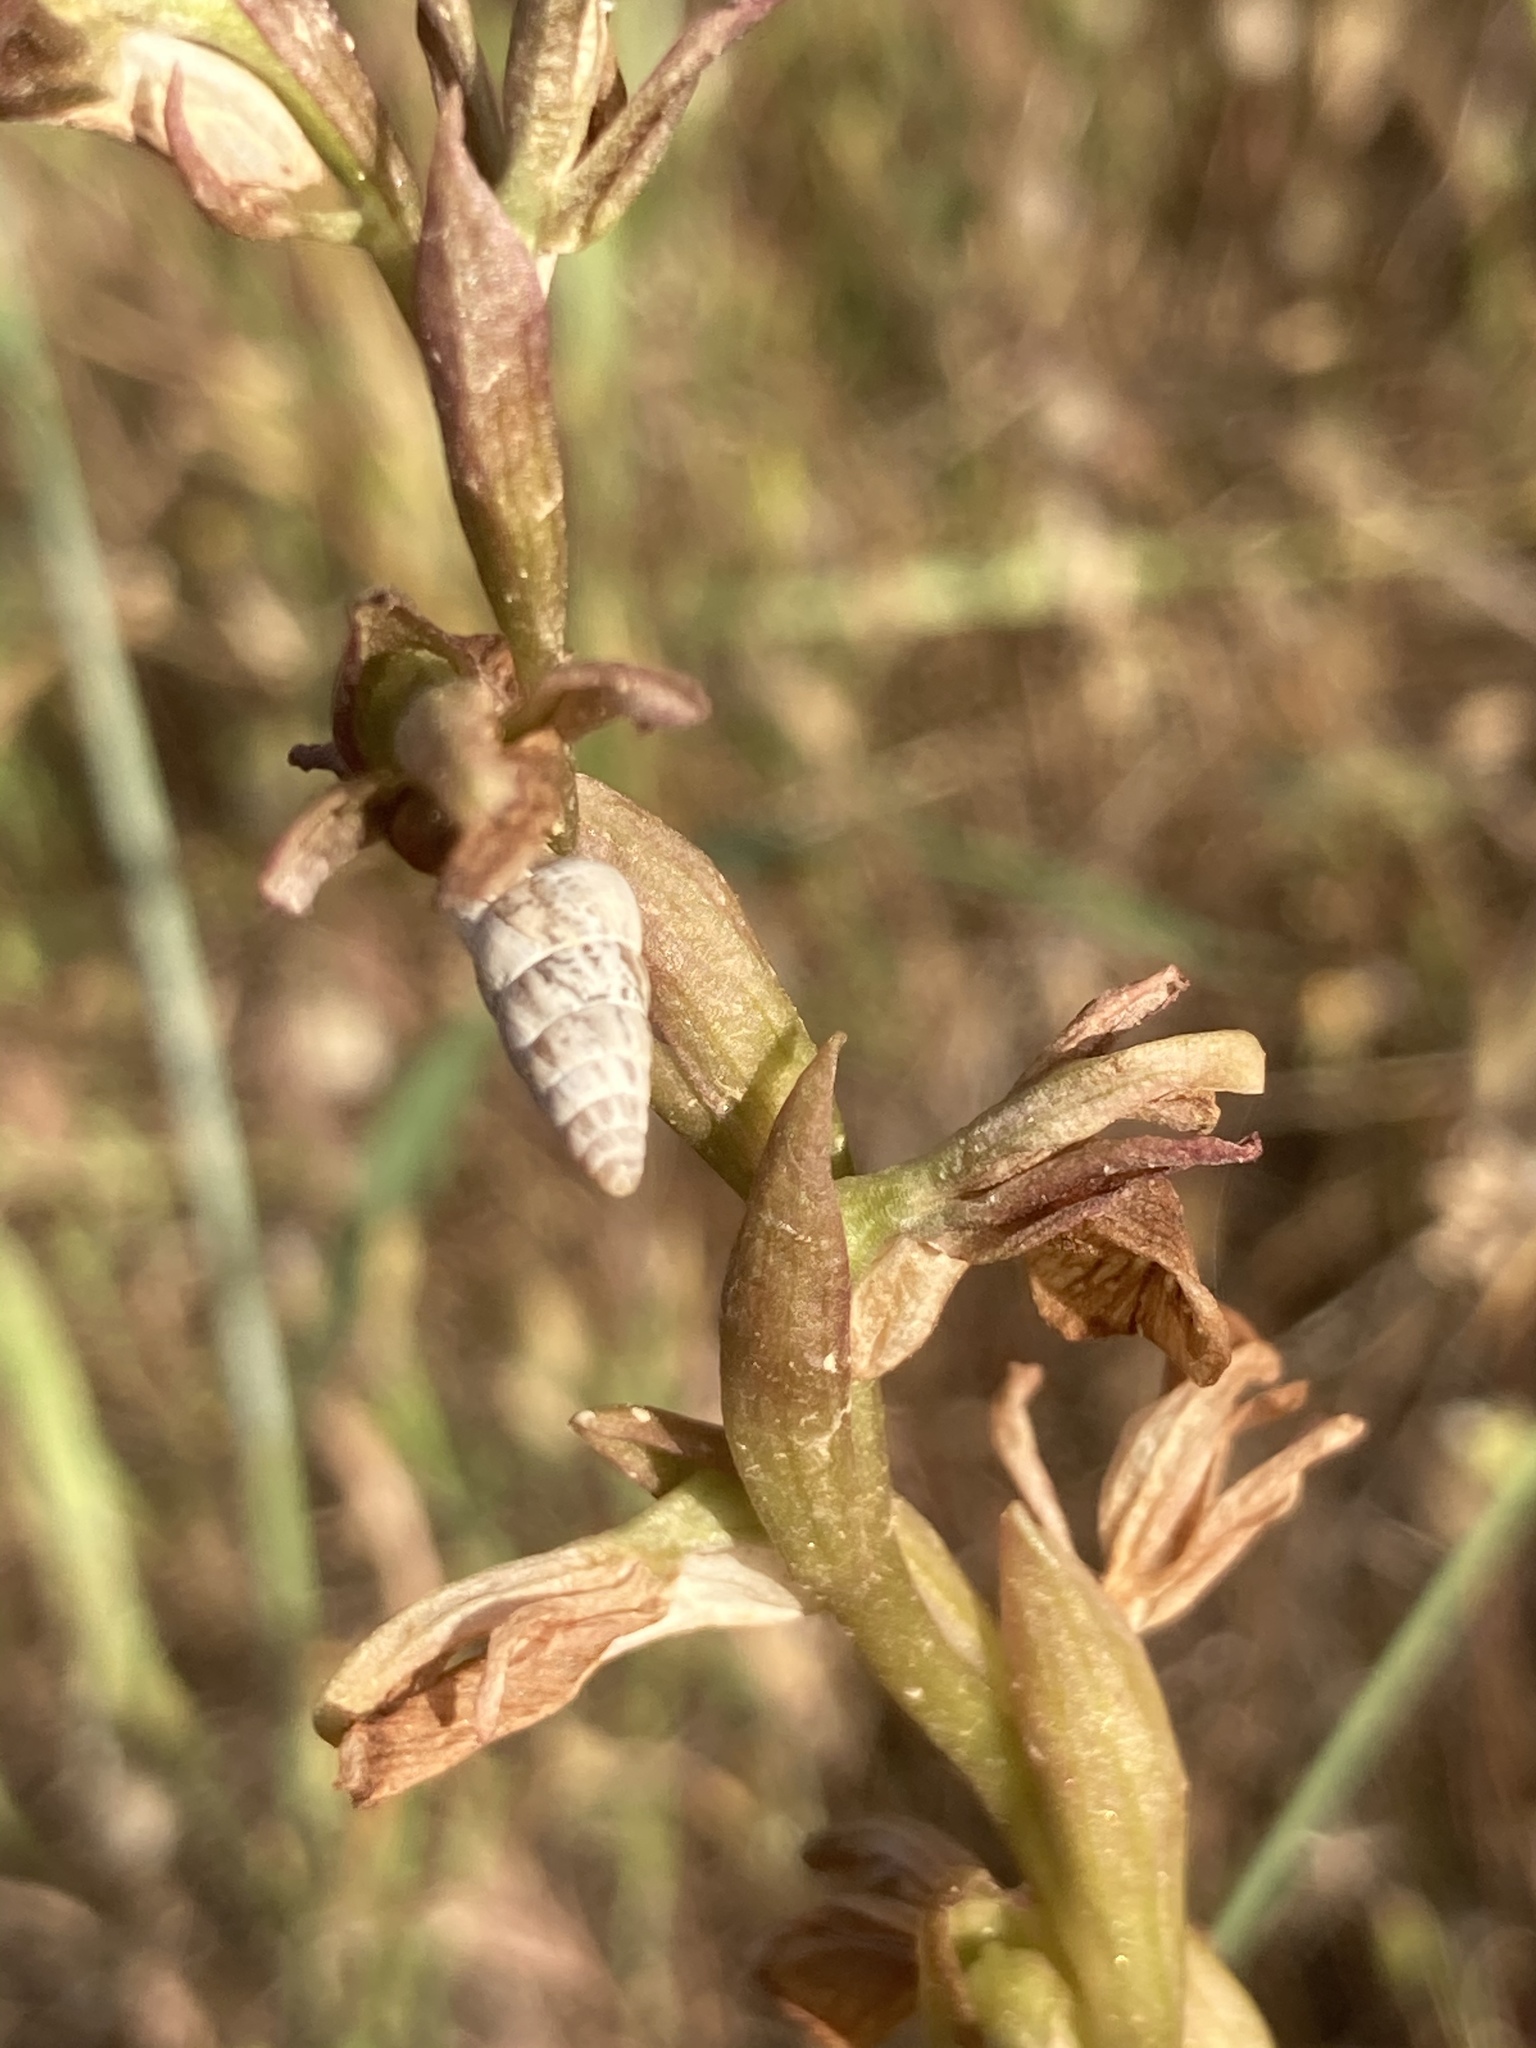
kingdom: Animalia
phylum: Mollusca
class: Gastropoda
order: Stylommatophora
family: Geomitridae
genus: Cochlicella
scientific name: Cochlicella acuta
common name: Pointed snail
